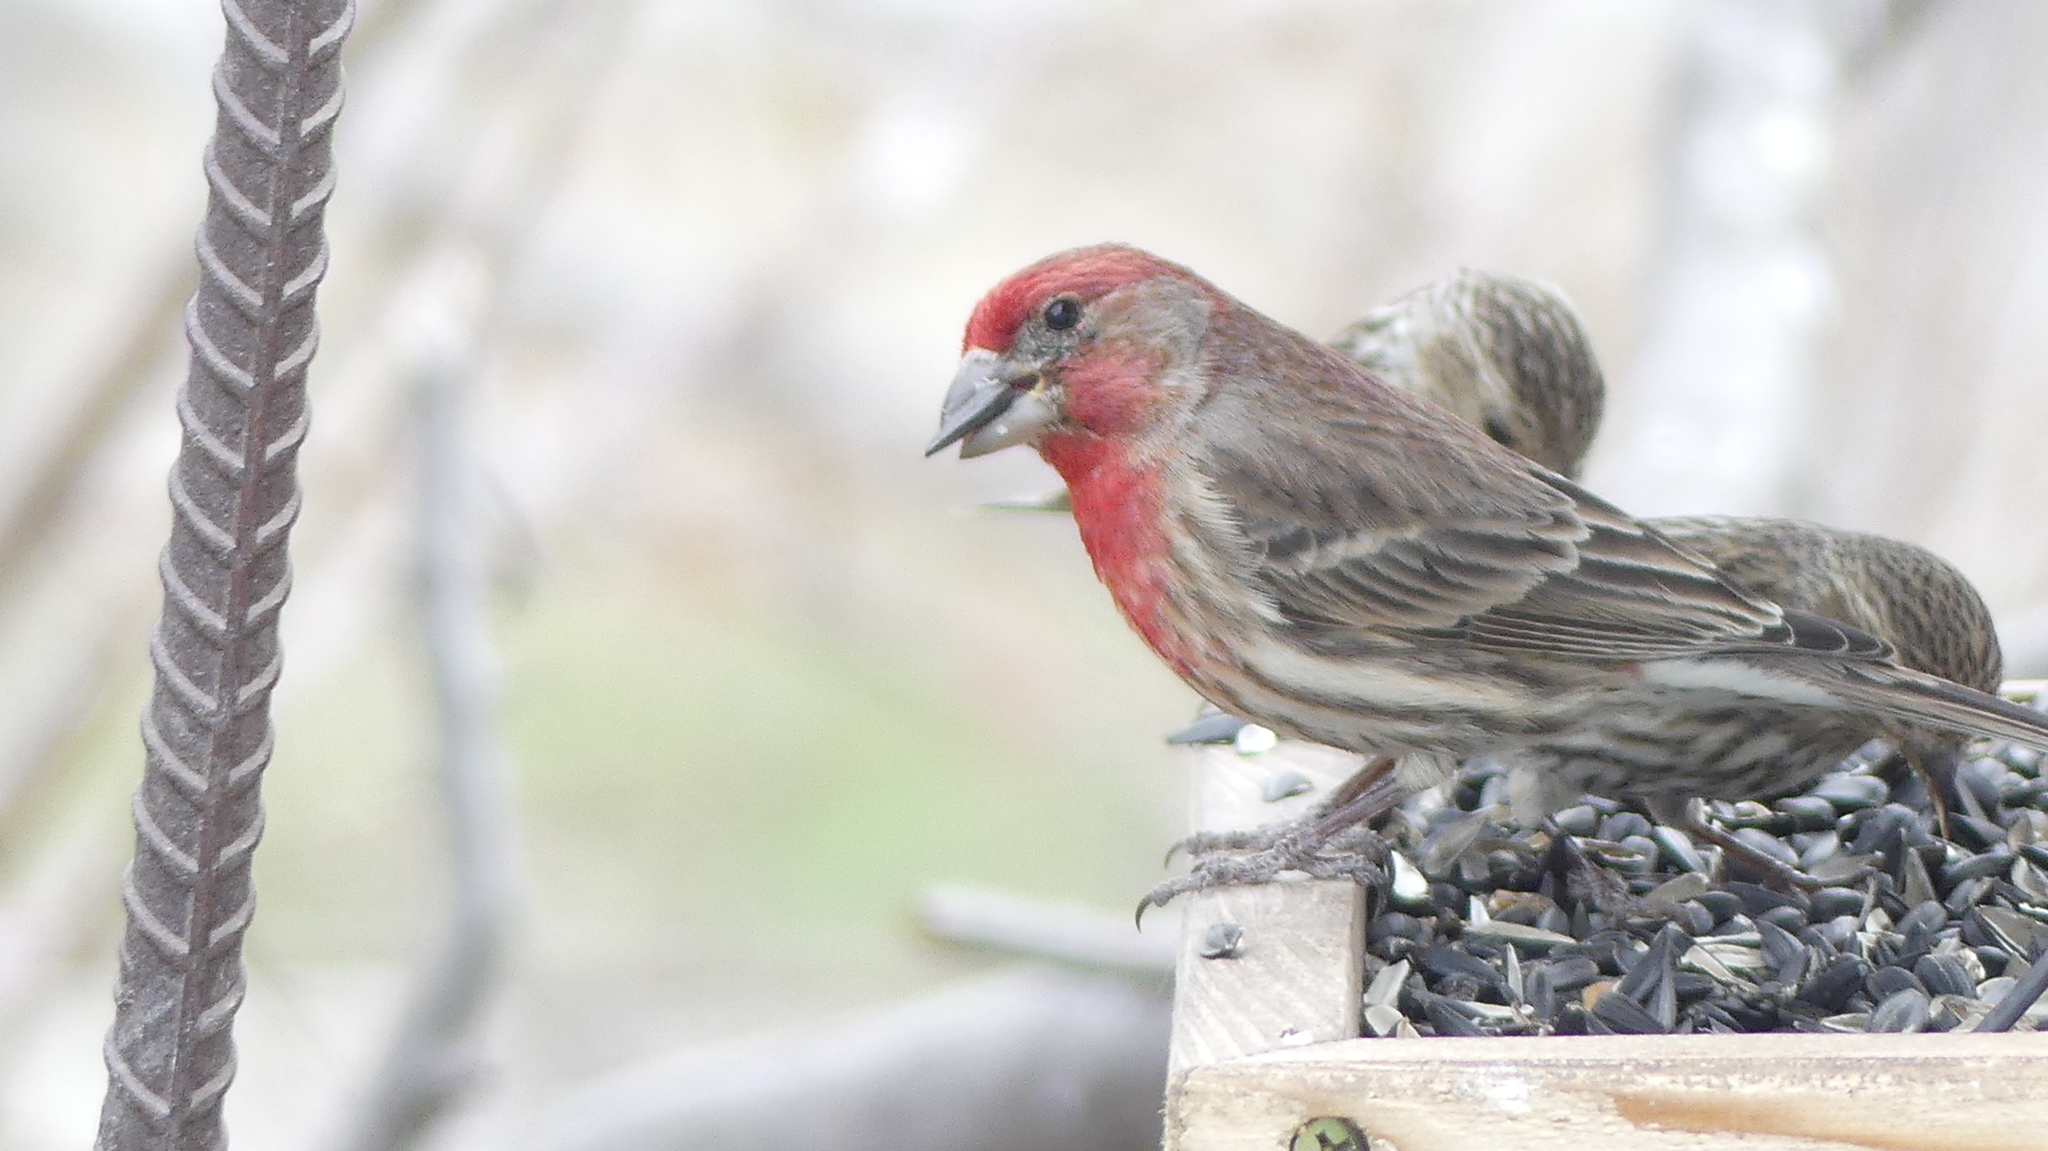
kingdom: Animalia
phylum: Chordata
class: Aves
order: Passeriformes
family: Fringillidae
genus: Haemorhous
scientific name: Haemorhous mexicanus
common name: House finch
